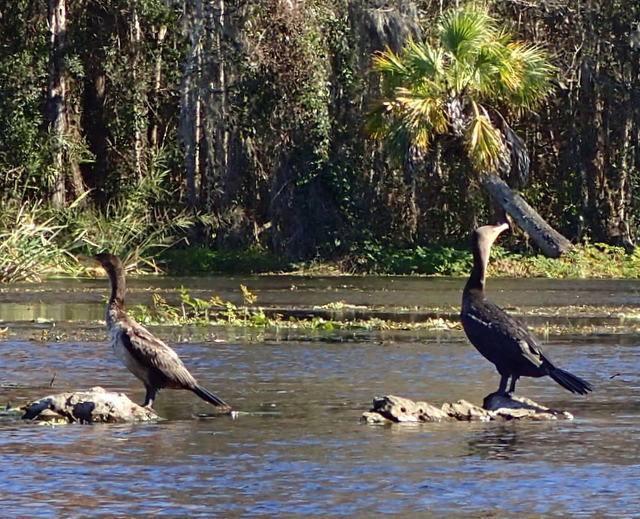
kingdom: Animalia
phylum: Chordata
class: Aves
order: Suliformes
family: Phalacrocoracidae
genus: Phalacrocorax
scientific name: Phalacrocorax auritus
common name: Double-crested cormorant
